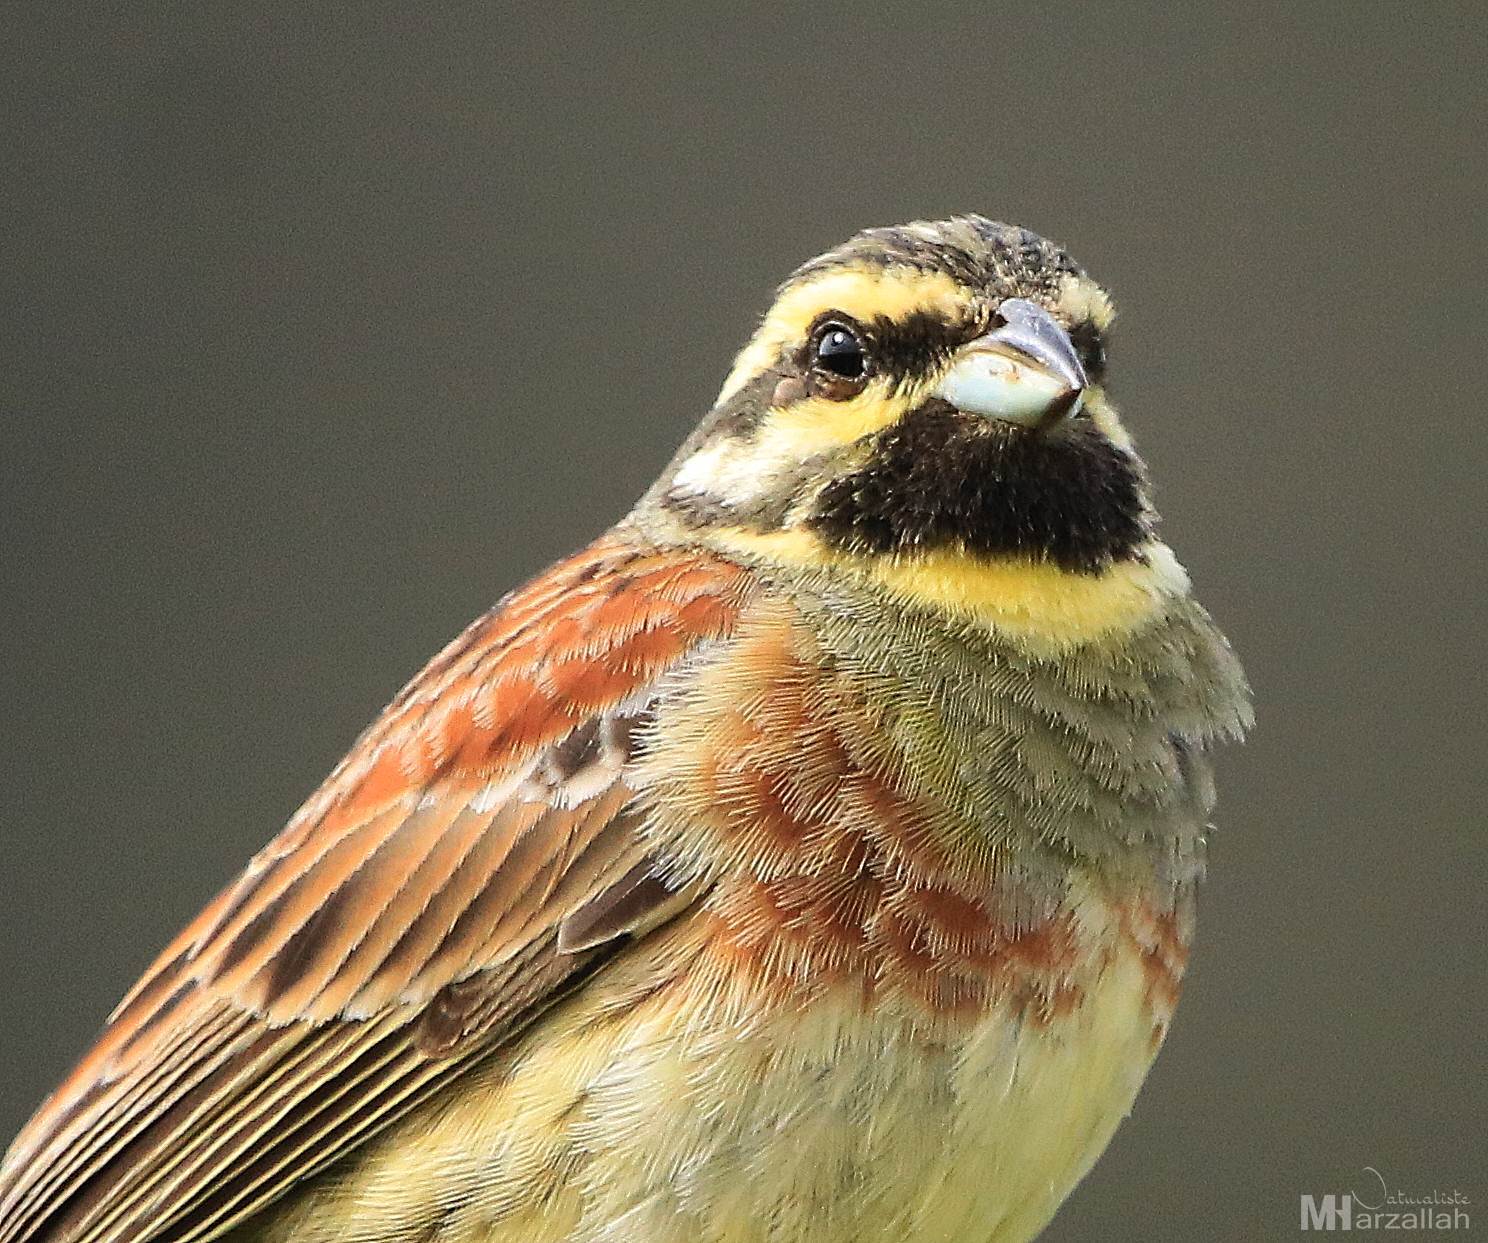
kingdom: Animalia
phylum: Chordata
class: Aves
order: Passeriformes
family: Emberizidae
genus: Emberiza
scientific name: Emberiza cirlus
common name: Cirl bunting
